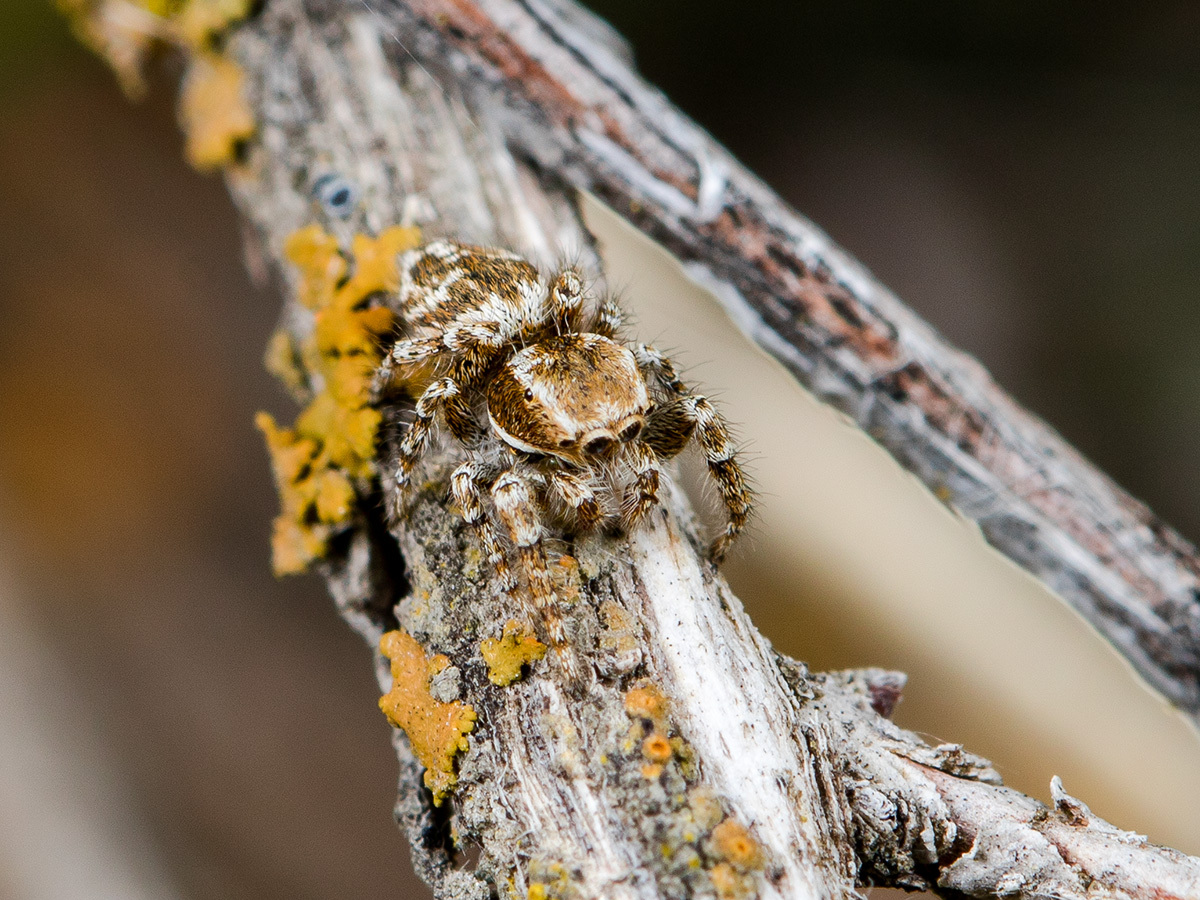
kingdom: Animalia
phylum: Arthropoda
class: Arachnida
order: Araneae
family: Salticidae
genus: Pseudomogrus
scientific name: Pseudomogrus pseudovalidus
